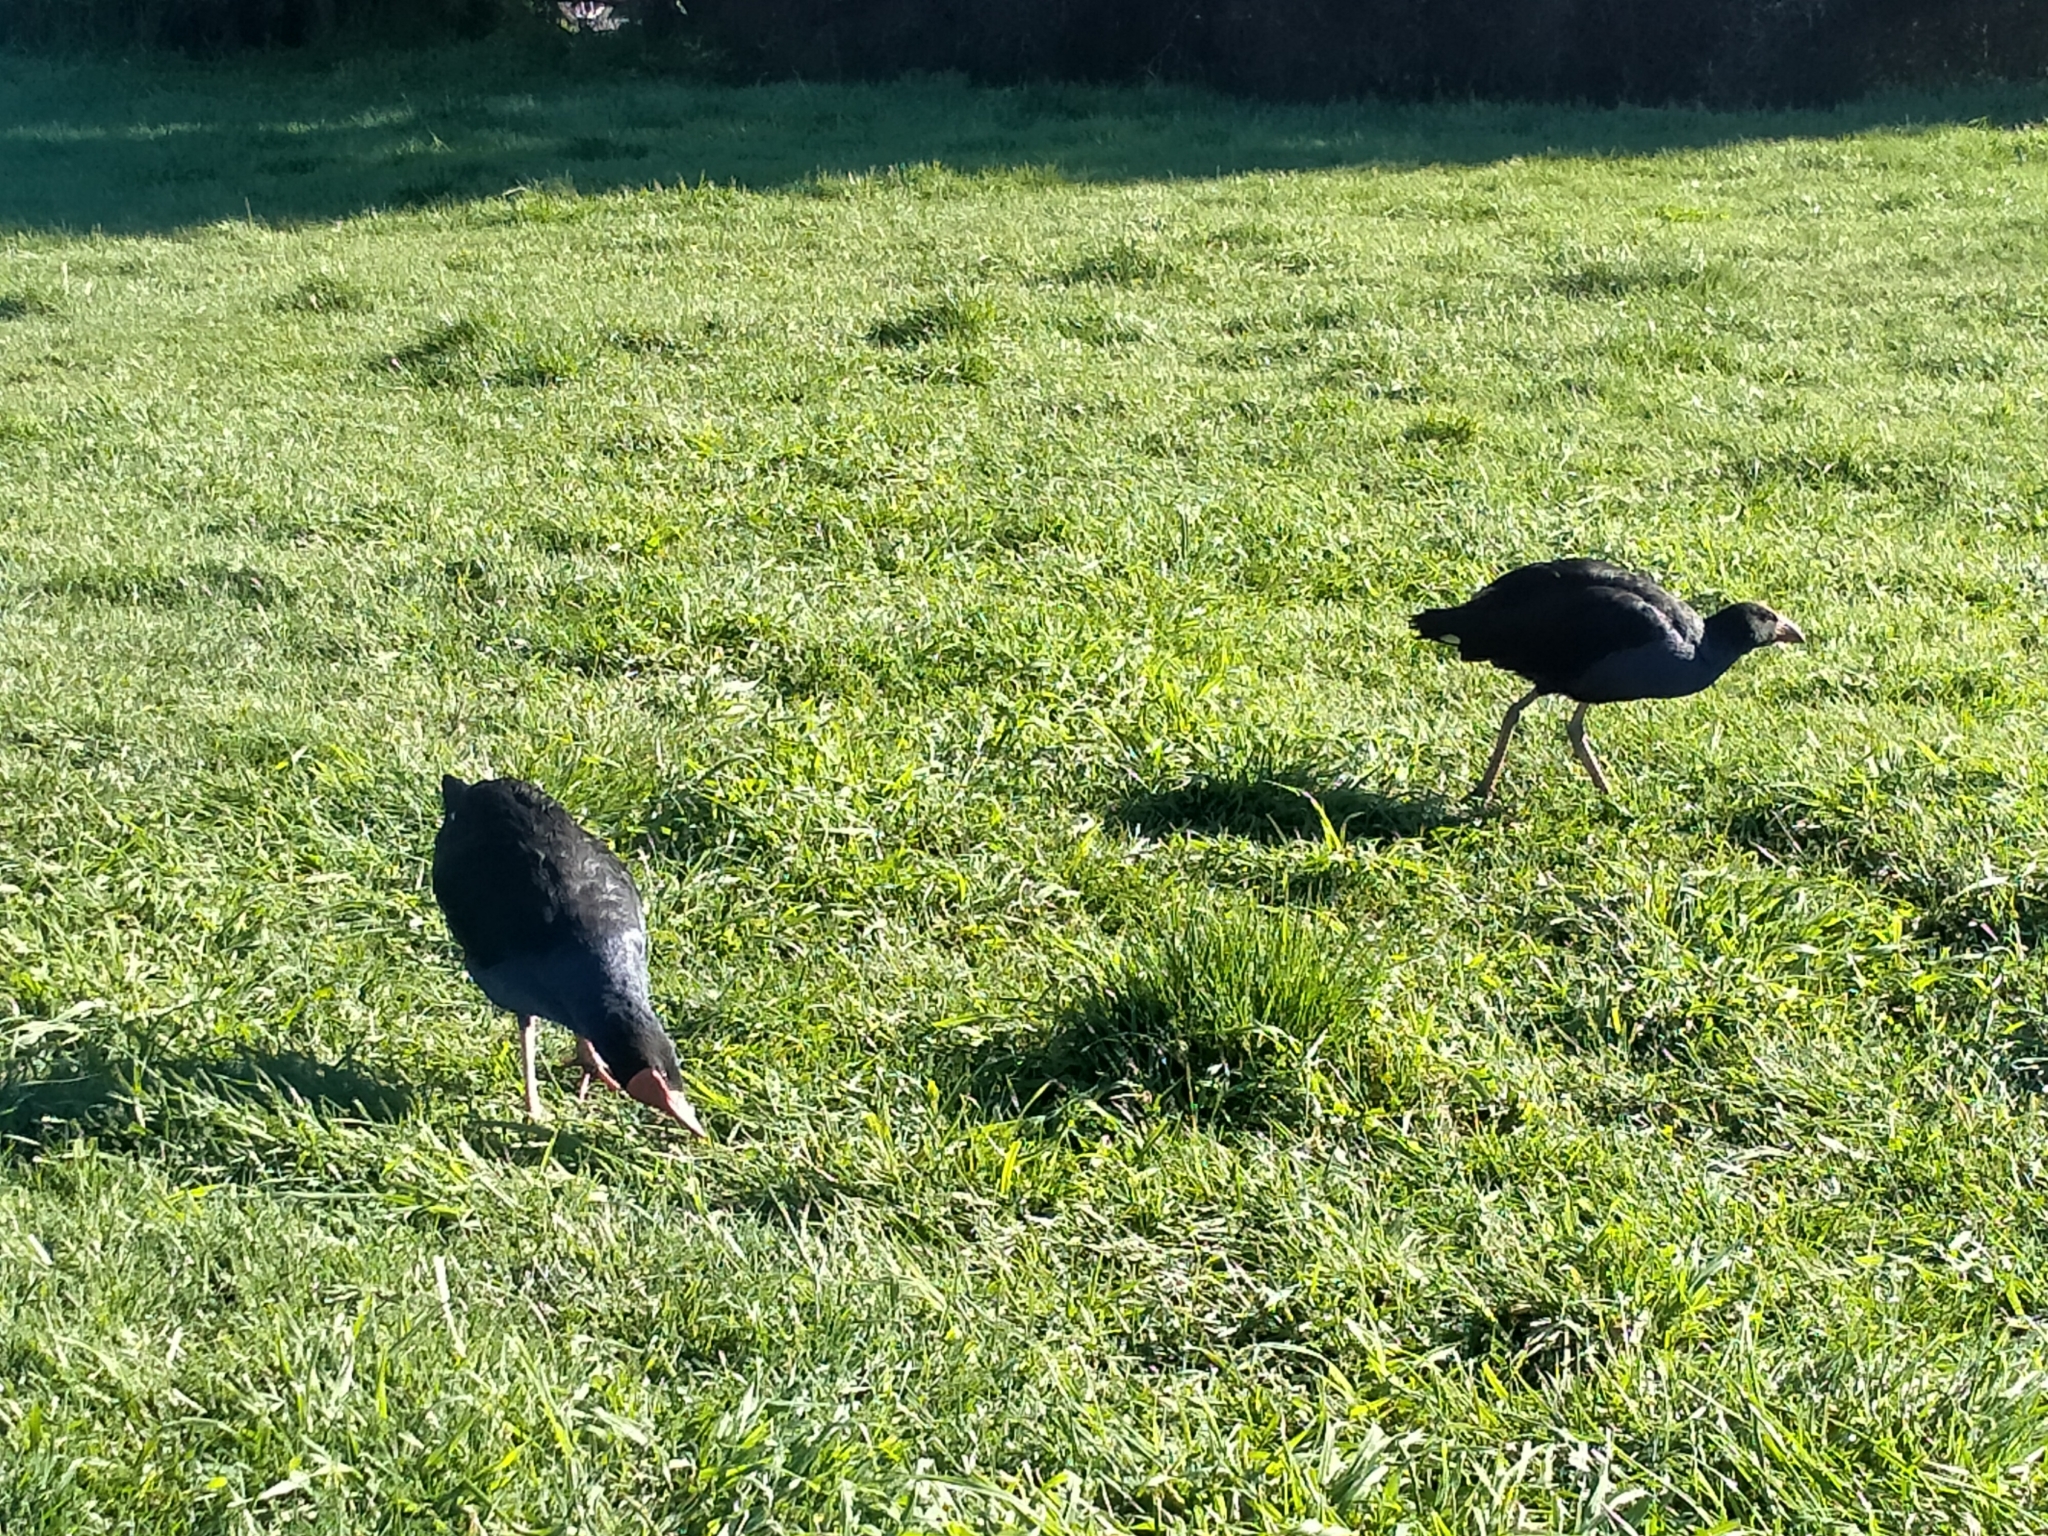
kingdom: Animalia
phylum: Chordata
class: Aves
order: Gruiformes
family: Rallidae
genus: Porphyrio
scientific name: Porphyrio melanotus
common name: Australasian swamphen
